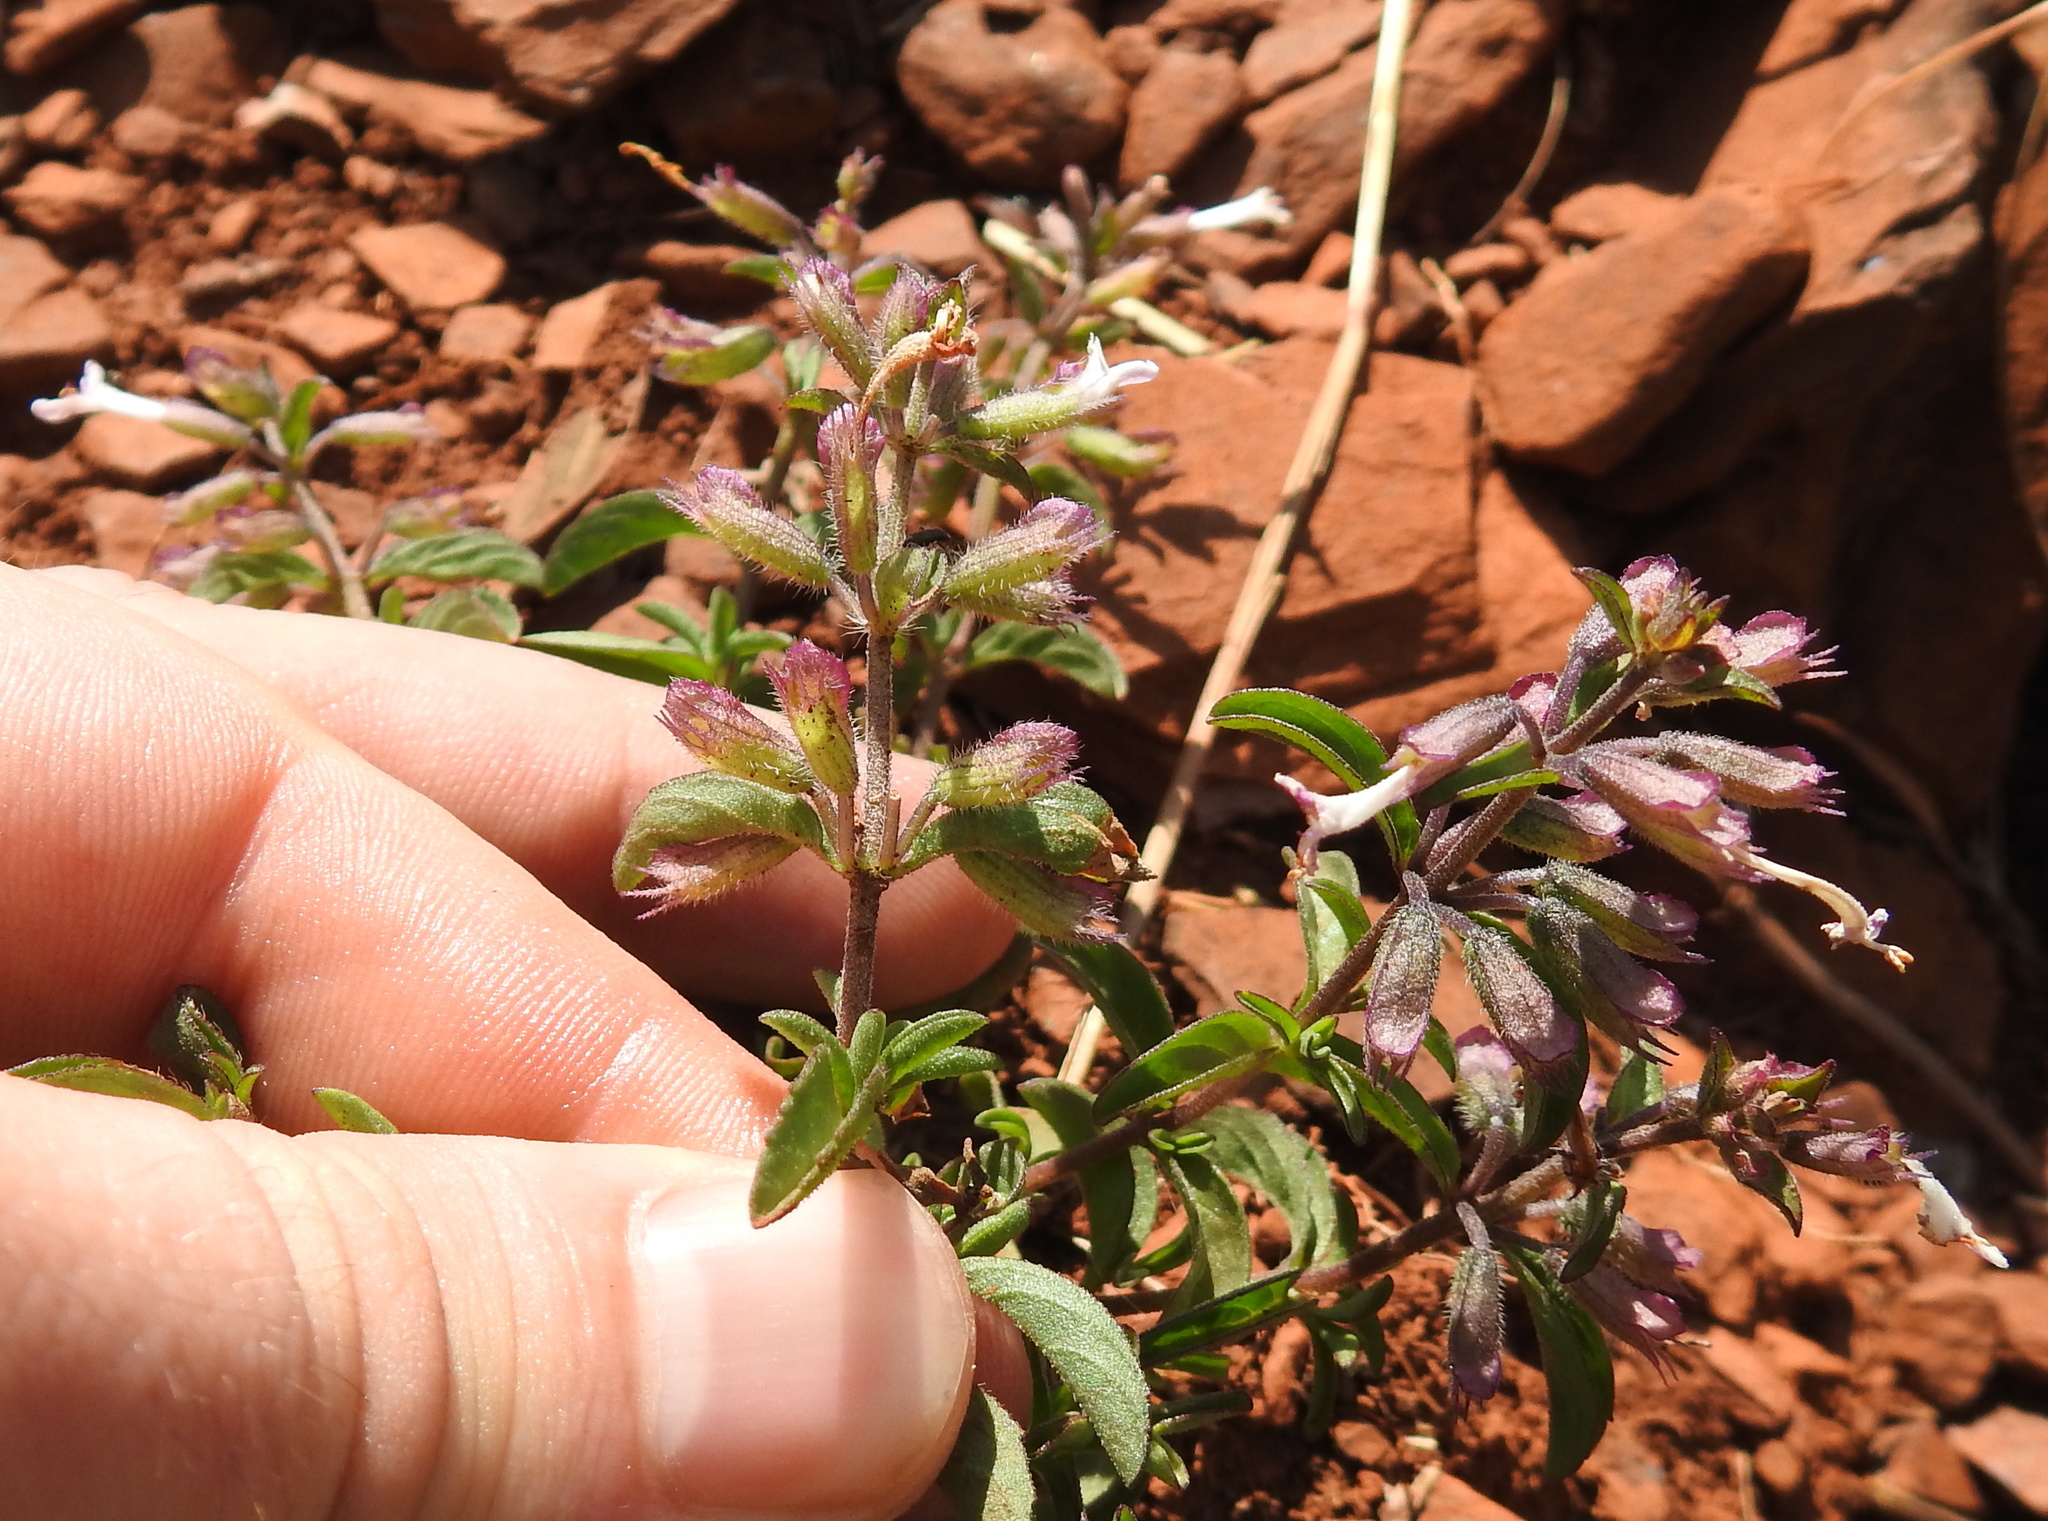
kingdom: Plantae
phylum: Tracheophyta
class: Magnoliopsida
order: Lamiales
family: Lamiaceae
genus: Syncolostemon
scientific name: Syncolostemon pretoriae
